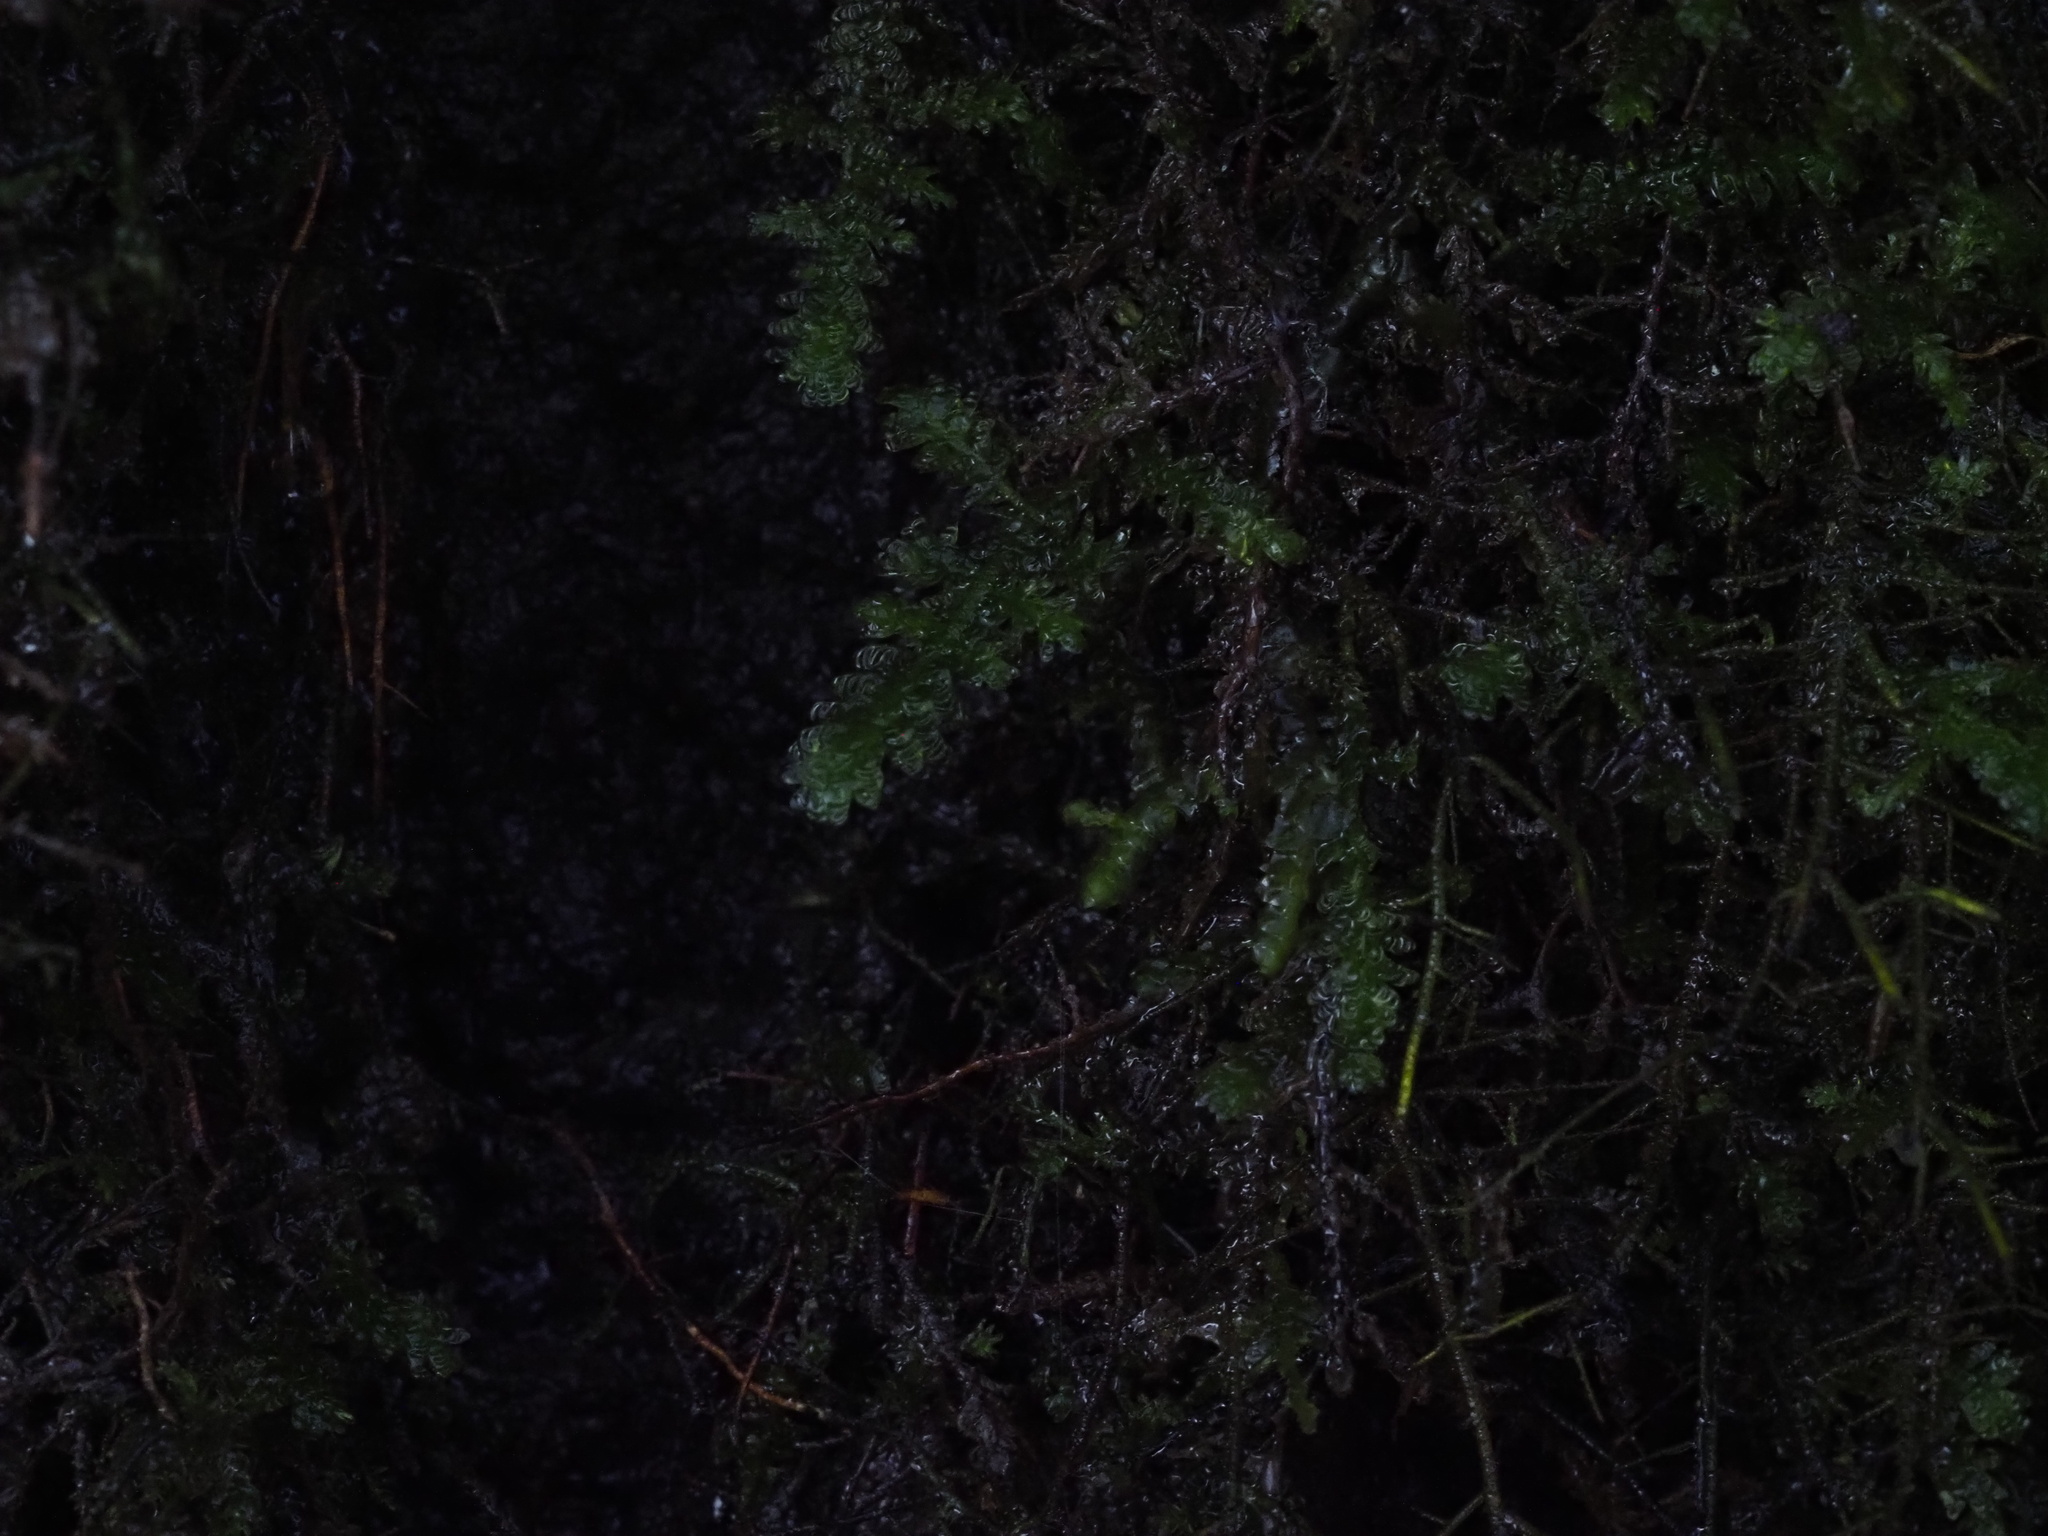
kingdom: Plantae
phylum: Bryophyta
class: Bryopsida
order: Hypnales
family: Neckeraceae
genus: Metaneckera
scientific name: Metaneckera menziesii
